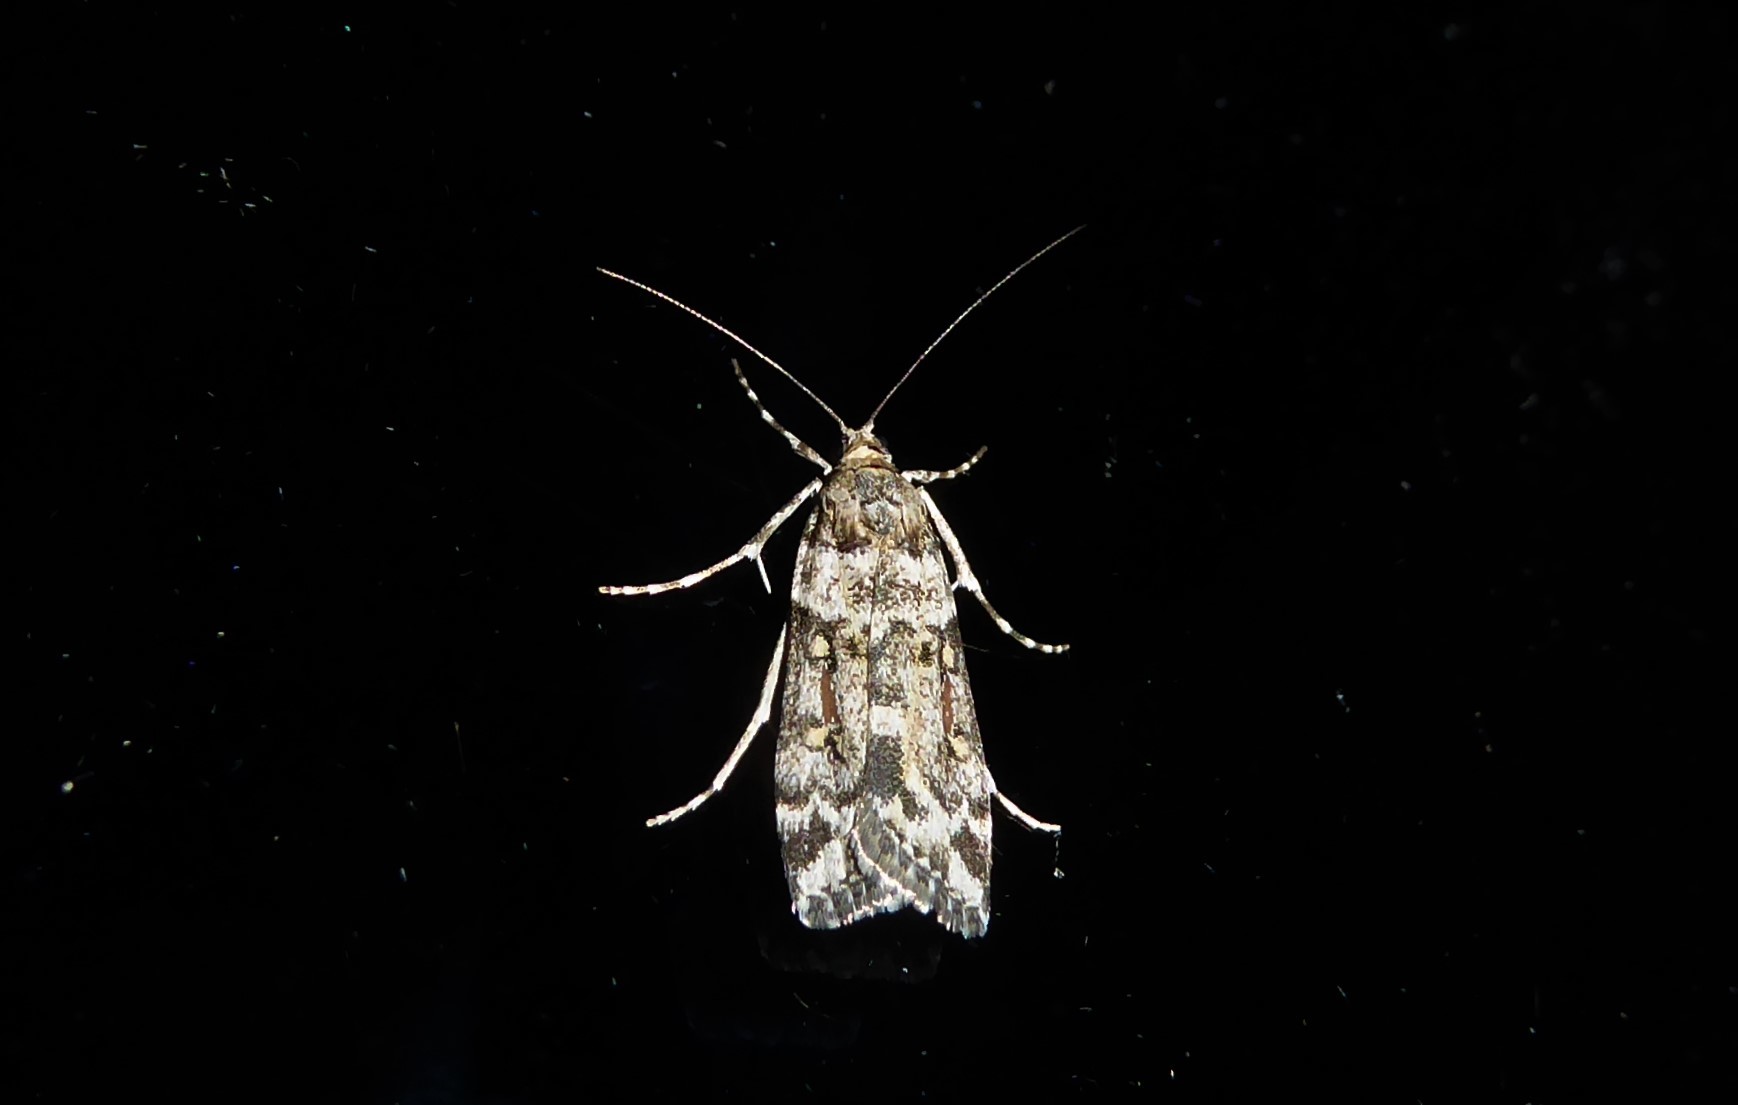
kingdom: Animalia
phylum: Arthropoda
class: Insecta
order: Lepidoptera
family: Crambidae
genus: Eudonia
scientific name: Eudonia diphtheralis
